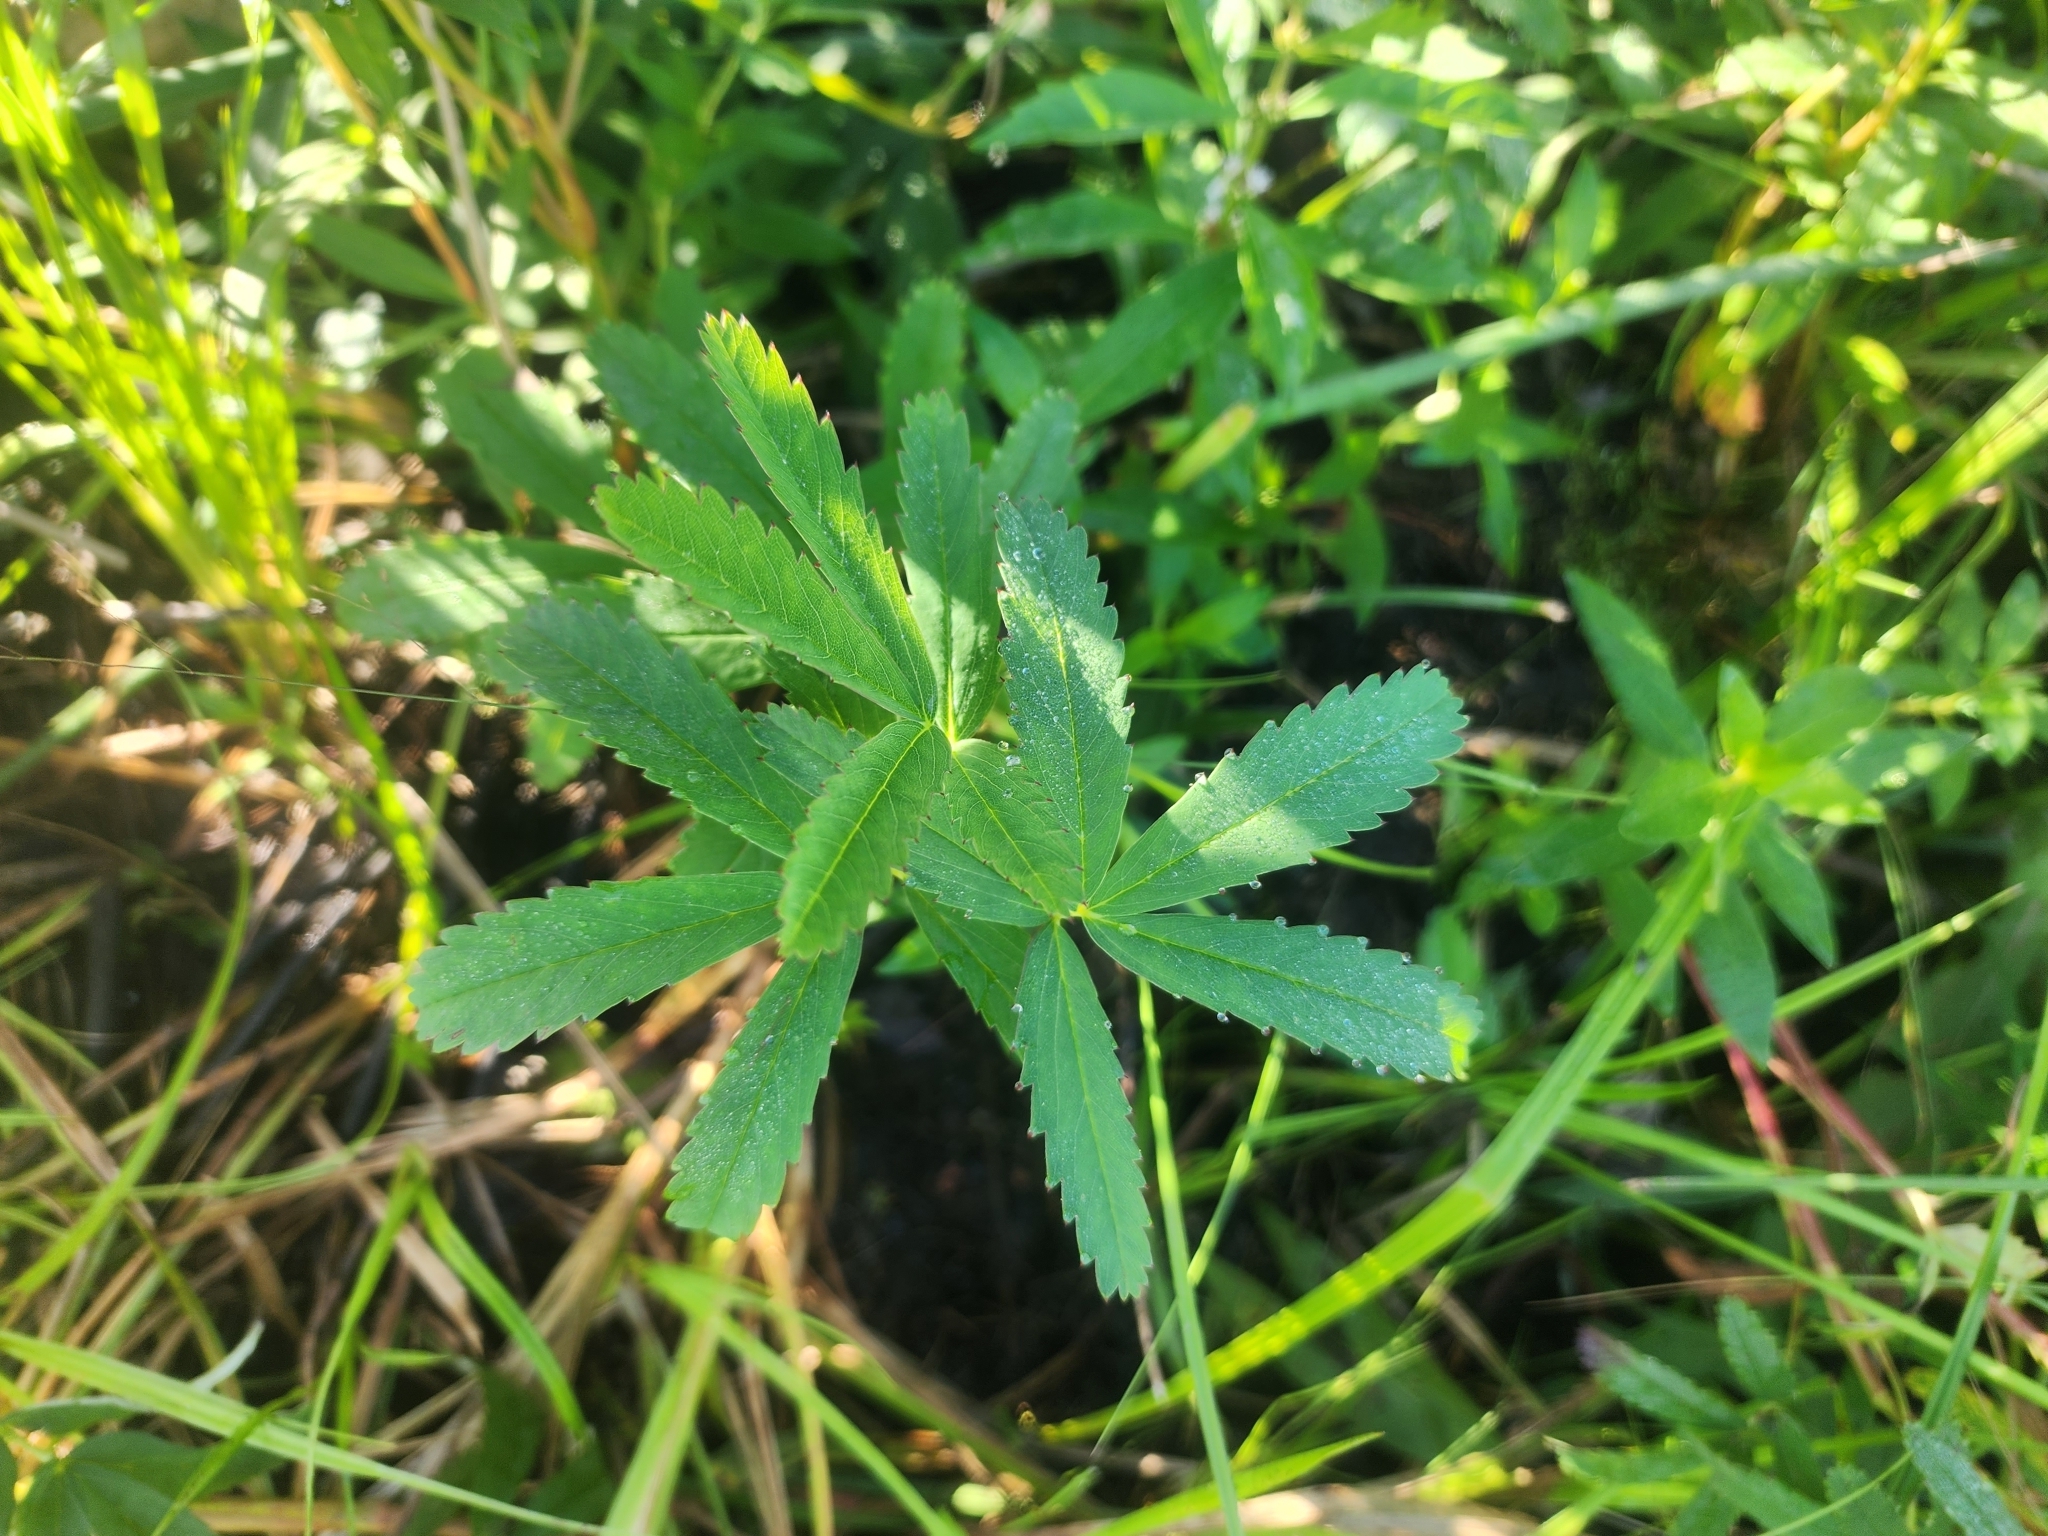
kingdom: Plantae
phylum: Tracheophyta
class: Magnoliopsida
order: Rosales
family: Rosaceae
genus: Comarum
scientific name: Comarum palustre
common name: Marsh cinquefoil
